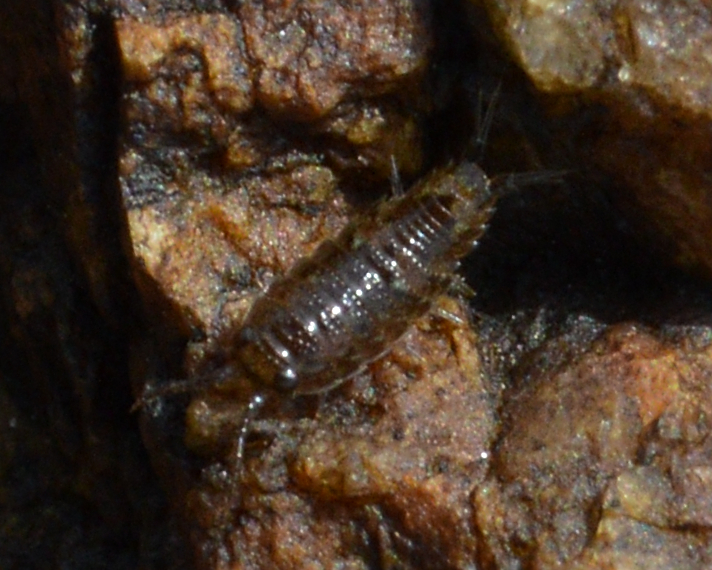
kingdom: Animalia
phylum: Arthropoda
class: Malacostraca
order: Isopoda
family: Ligiidae
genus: Ligia
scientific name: Ligia oceanica
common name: Sea slater
